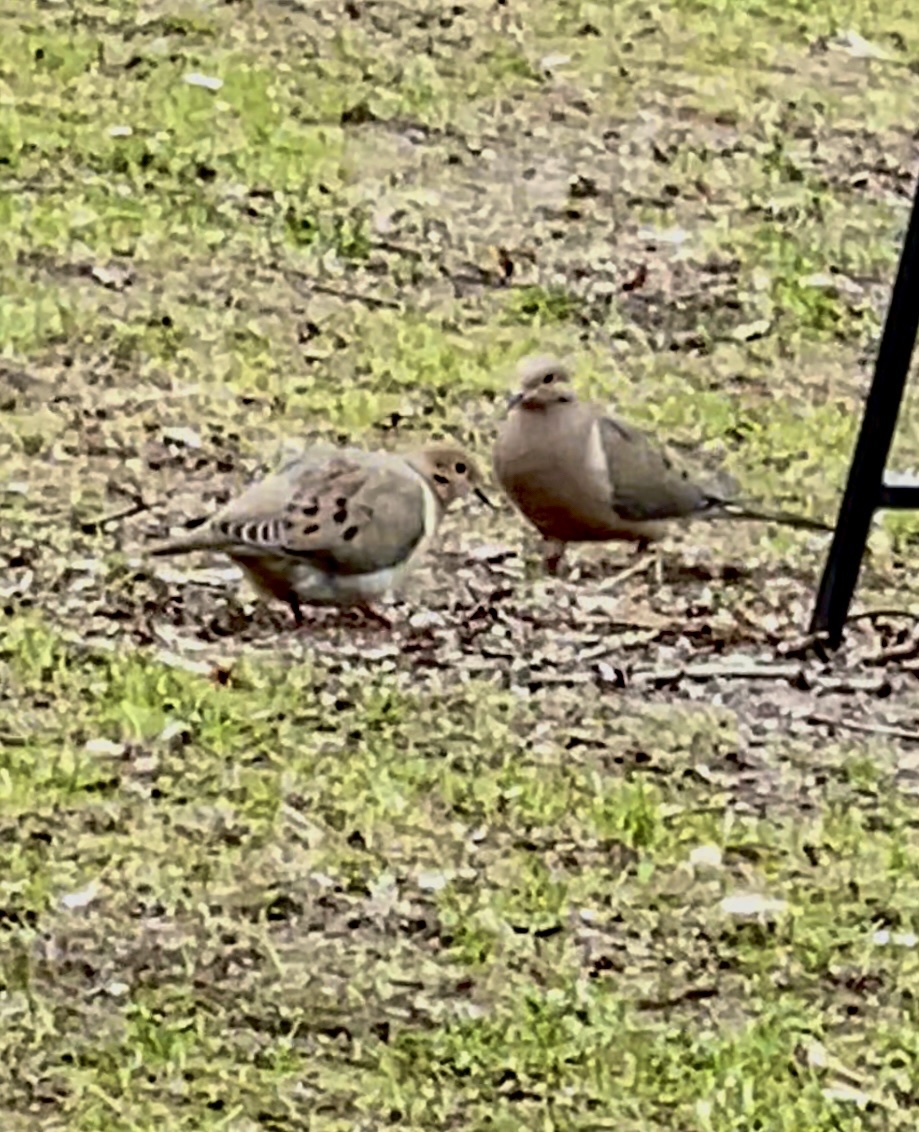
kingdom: Animalia
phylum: Chordata
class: Aves
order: Columbiformes
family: Columbidae
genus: Zenaida
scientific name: Zenaida macroura
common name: Mourning dove
